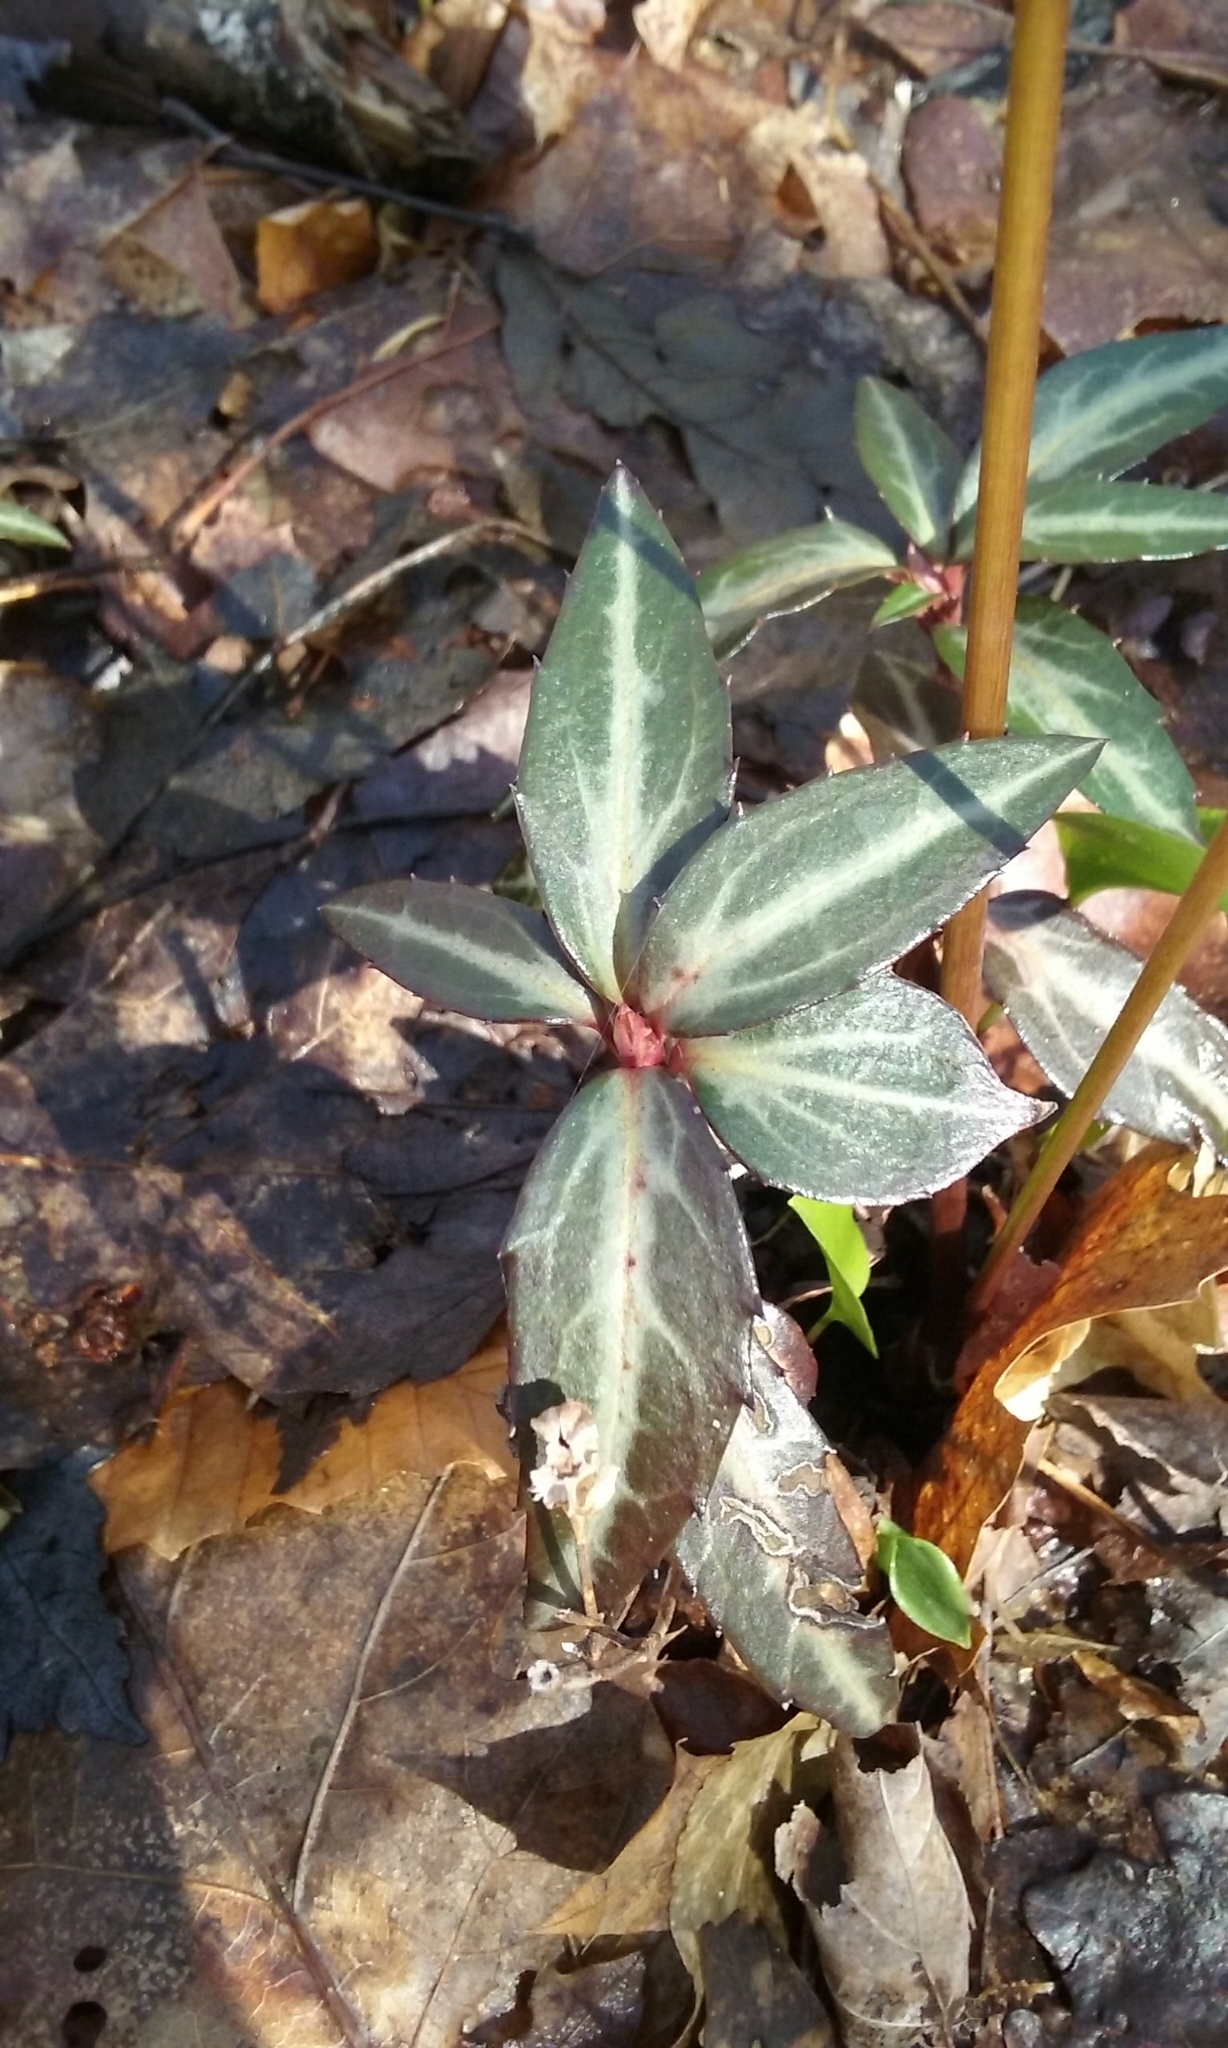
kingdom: Plantae
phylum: Tracheophyta
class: Magnoliopsida
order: Ericales
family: Ericaceae
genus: Chimaphila
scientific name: Chimaphila maculata
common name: Spotted pipsissewa
